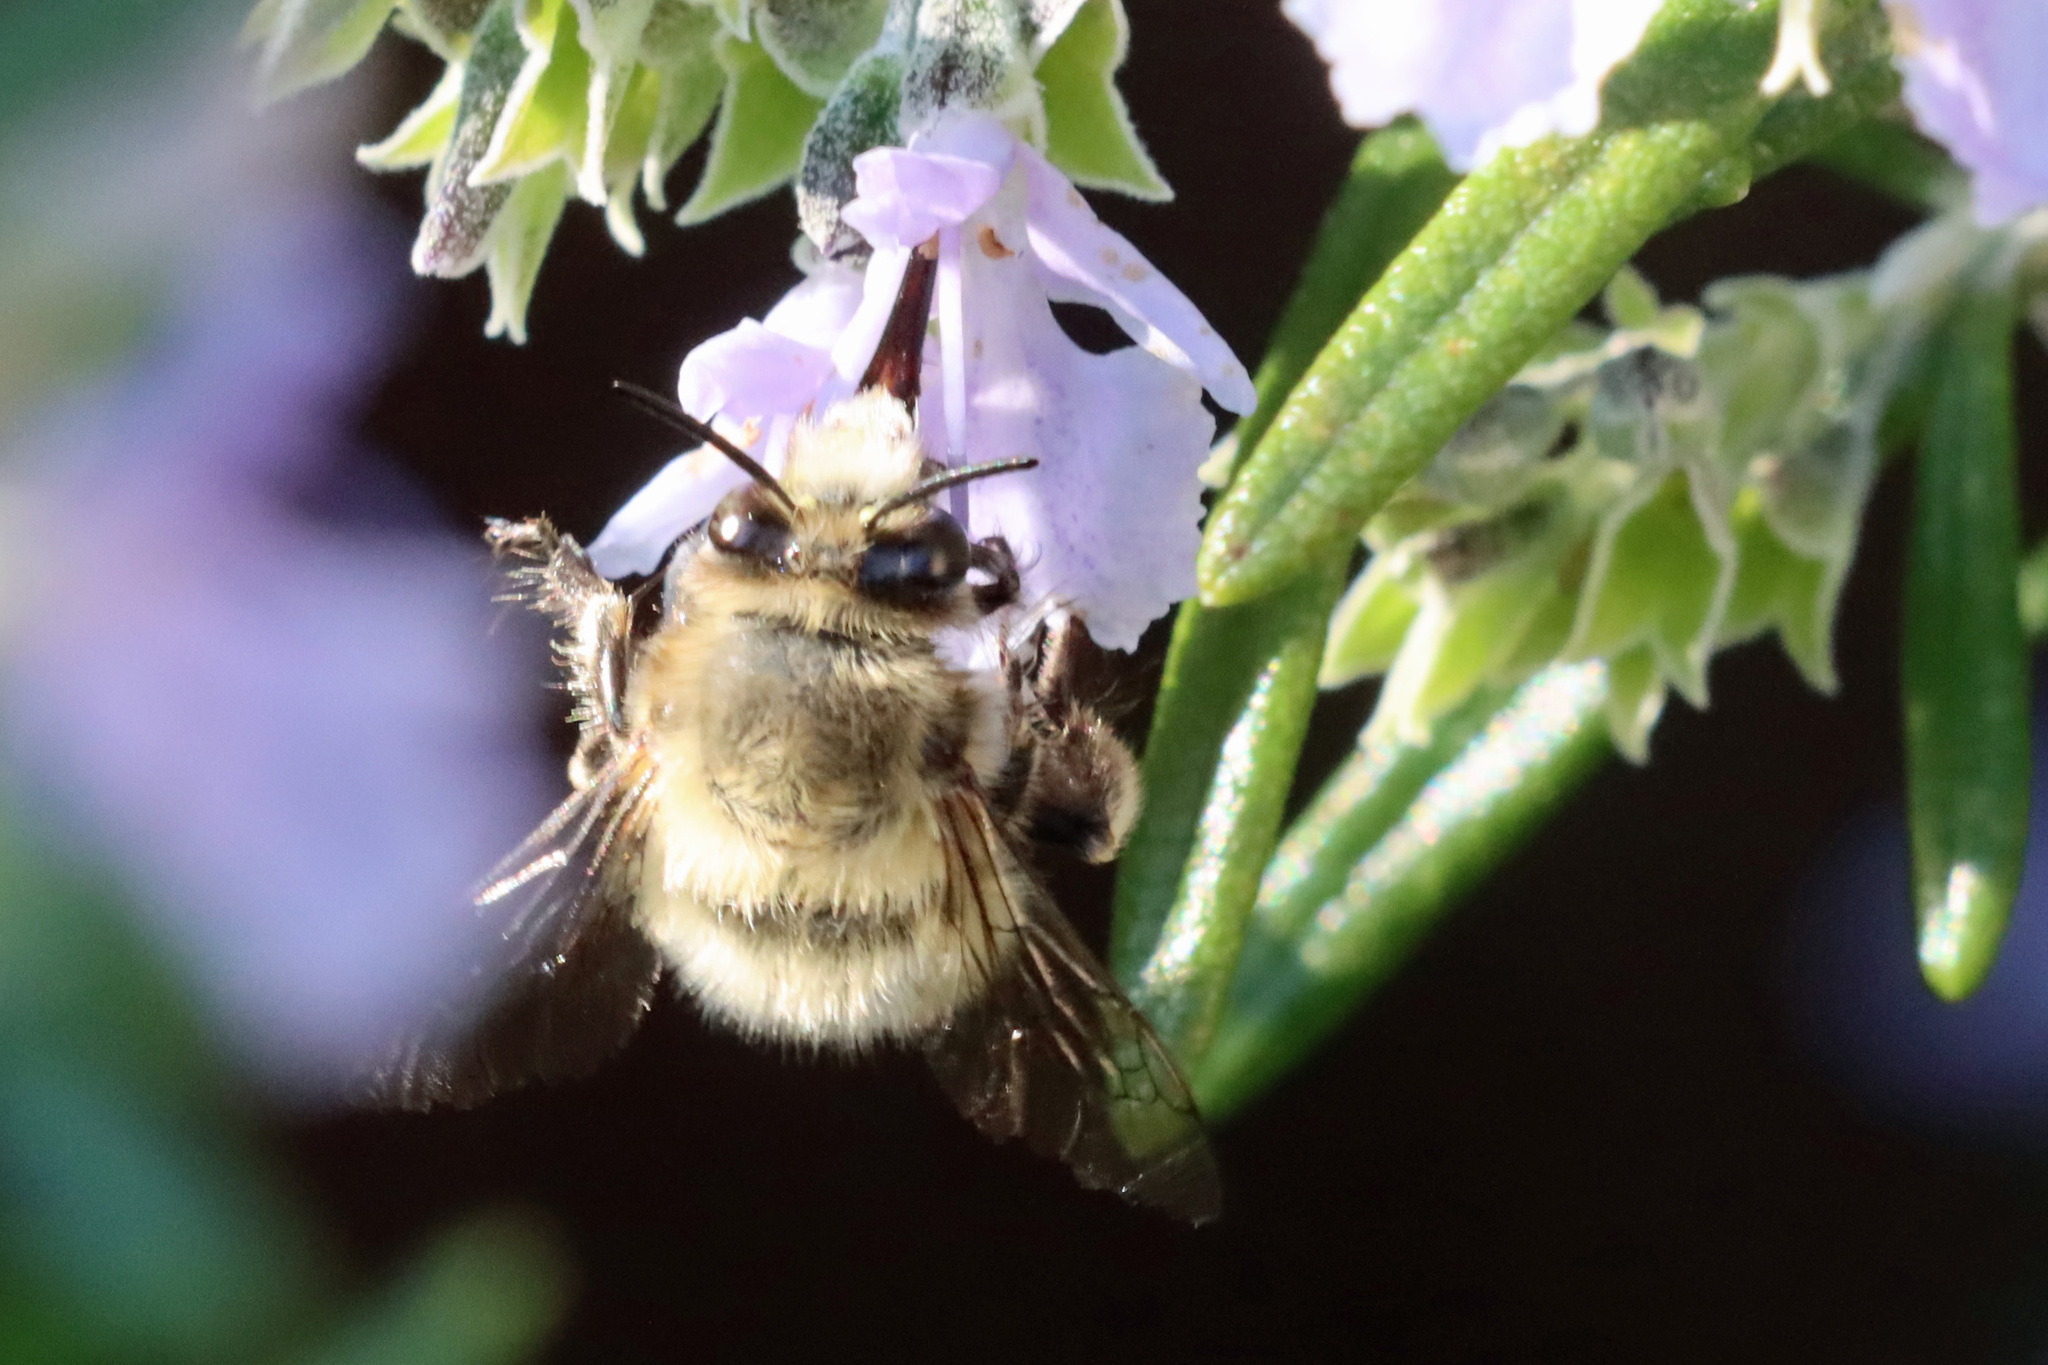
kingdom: Animalia
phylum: Arthropoda
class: Insecta
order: Hymenoptera
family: Apidae
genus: Anthophora
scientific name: Anthophora plumipes
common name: Hairy-footed flower bee
